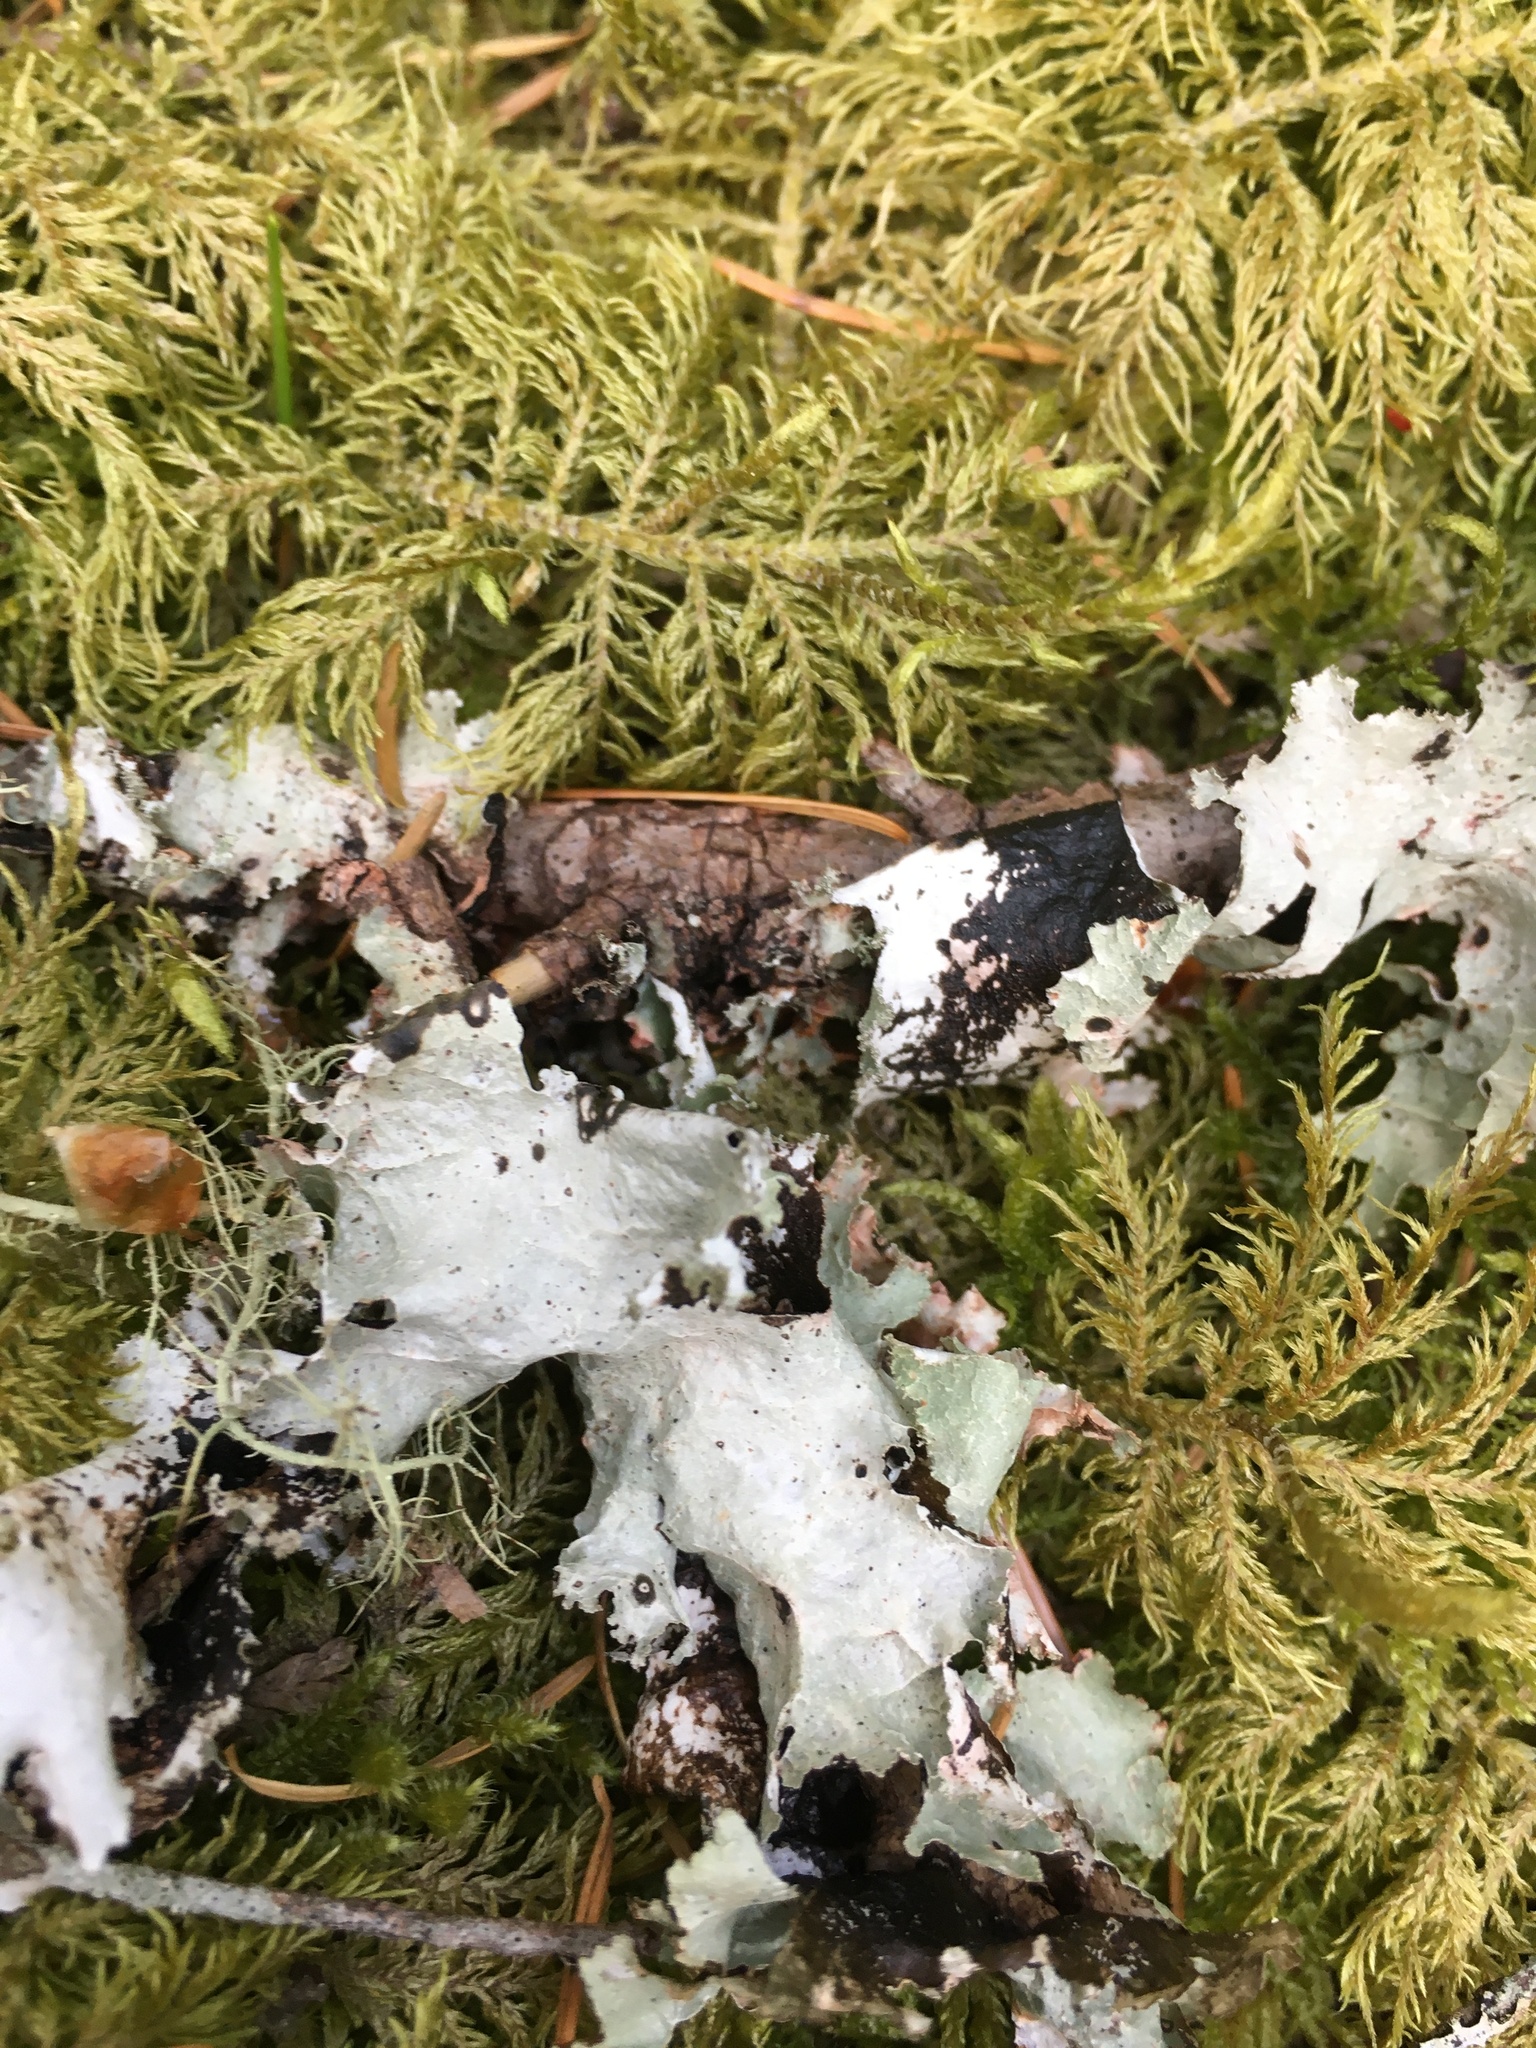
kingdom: Fungi
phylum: Ascomycota
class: Lecanoromycetes
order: Lecanorales
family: Parmeliaceae
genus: Platismatia
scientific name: Platismatia glauca
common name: Varied rag lichen
